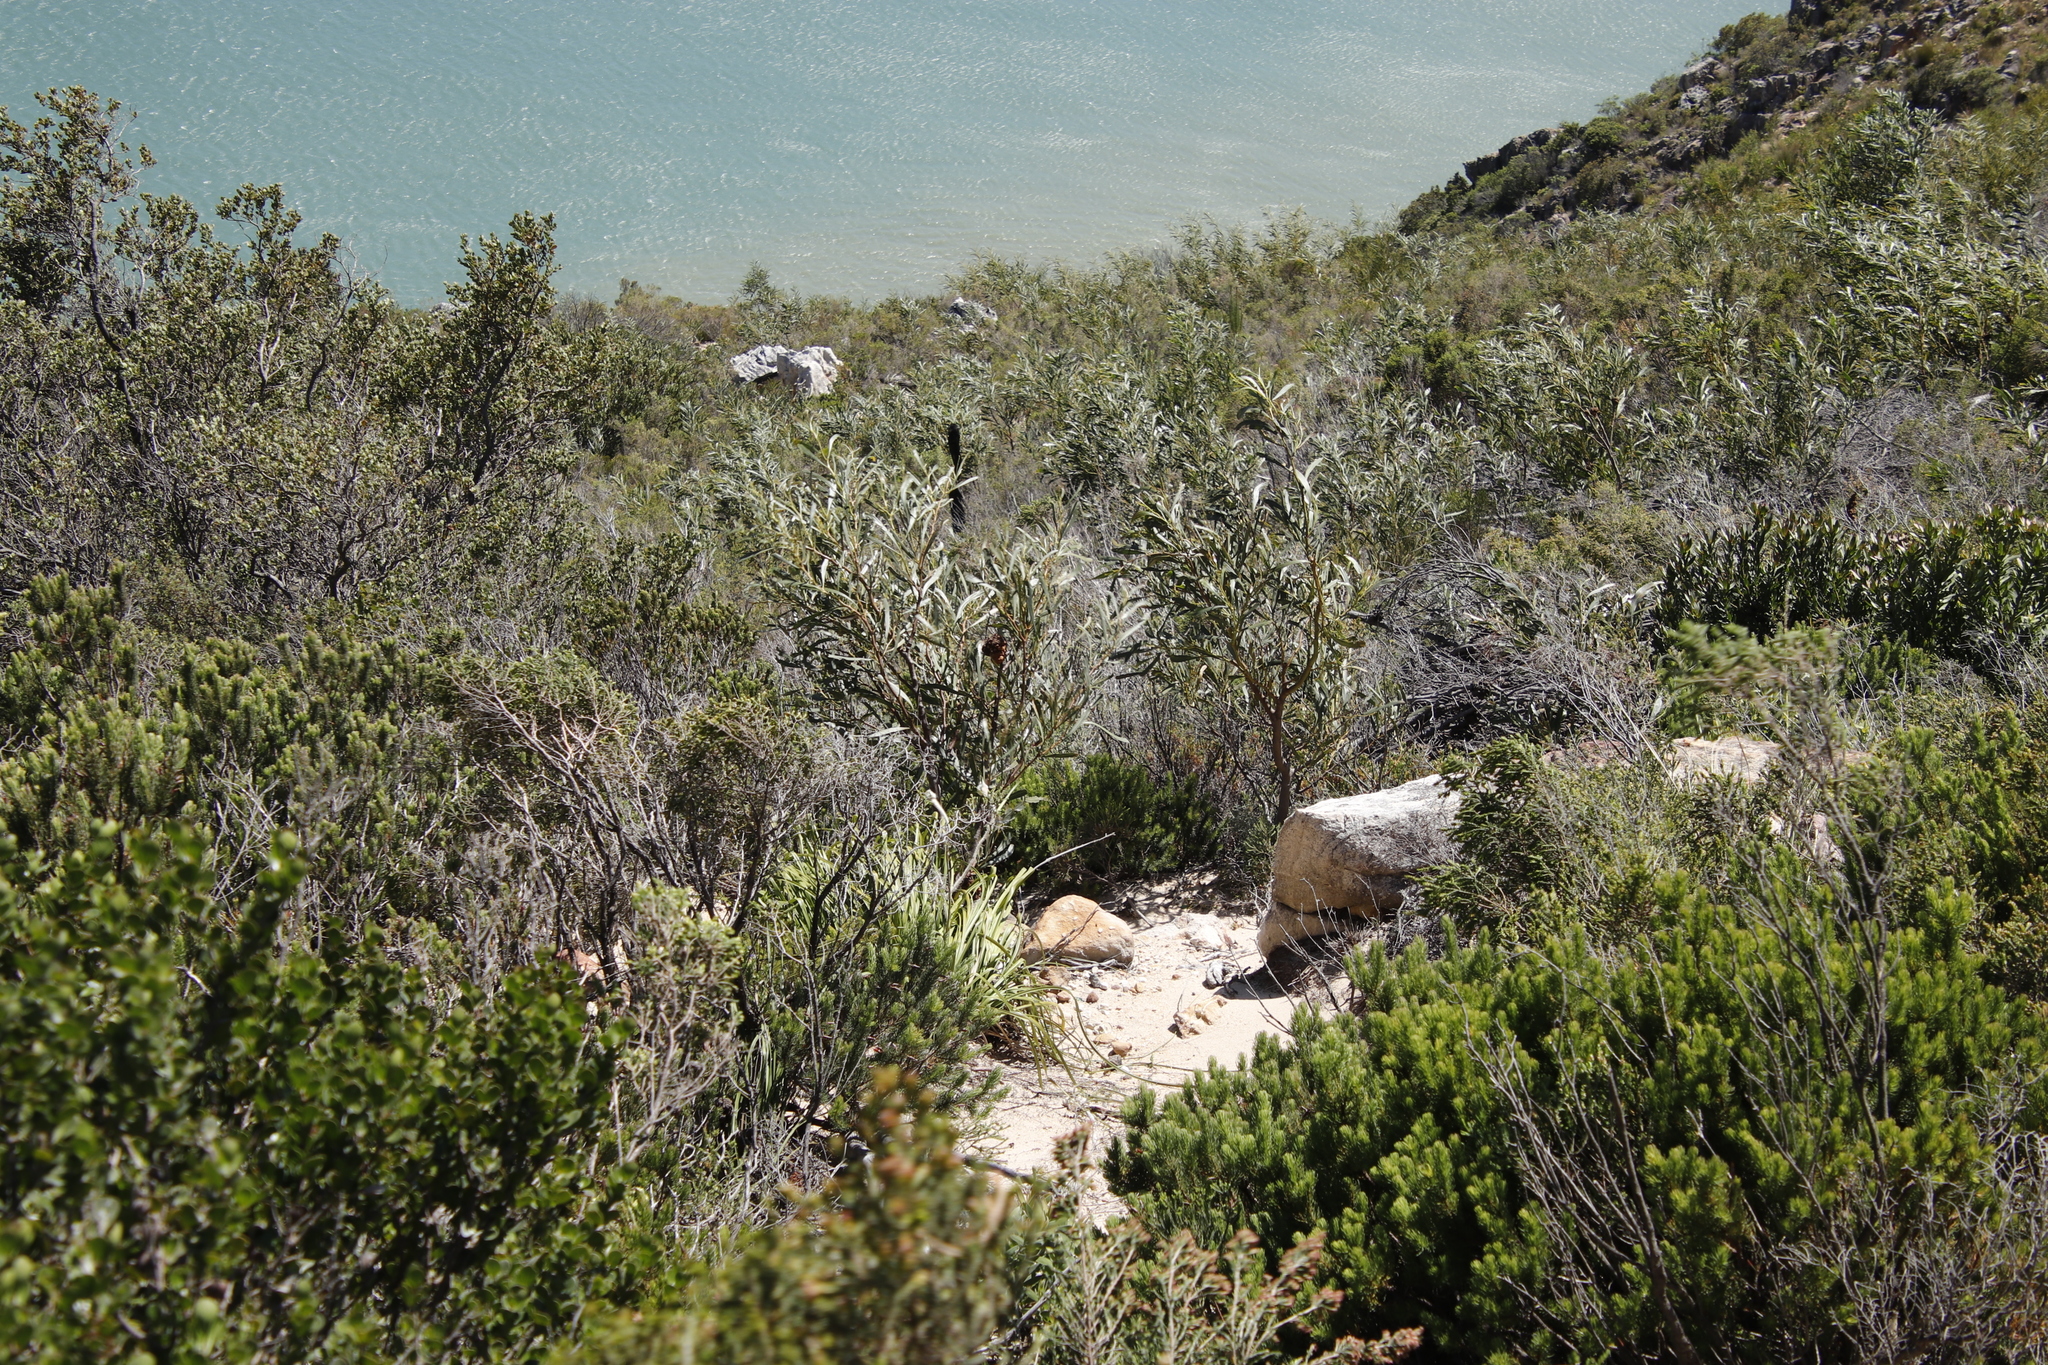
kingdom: Plantae
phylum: Tracheophyta
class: Magnoliopsida
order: Fabales
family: Fabaceae
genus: Acacia
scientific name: Acacia saligna
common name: Orange wattle
